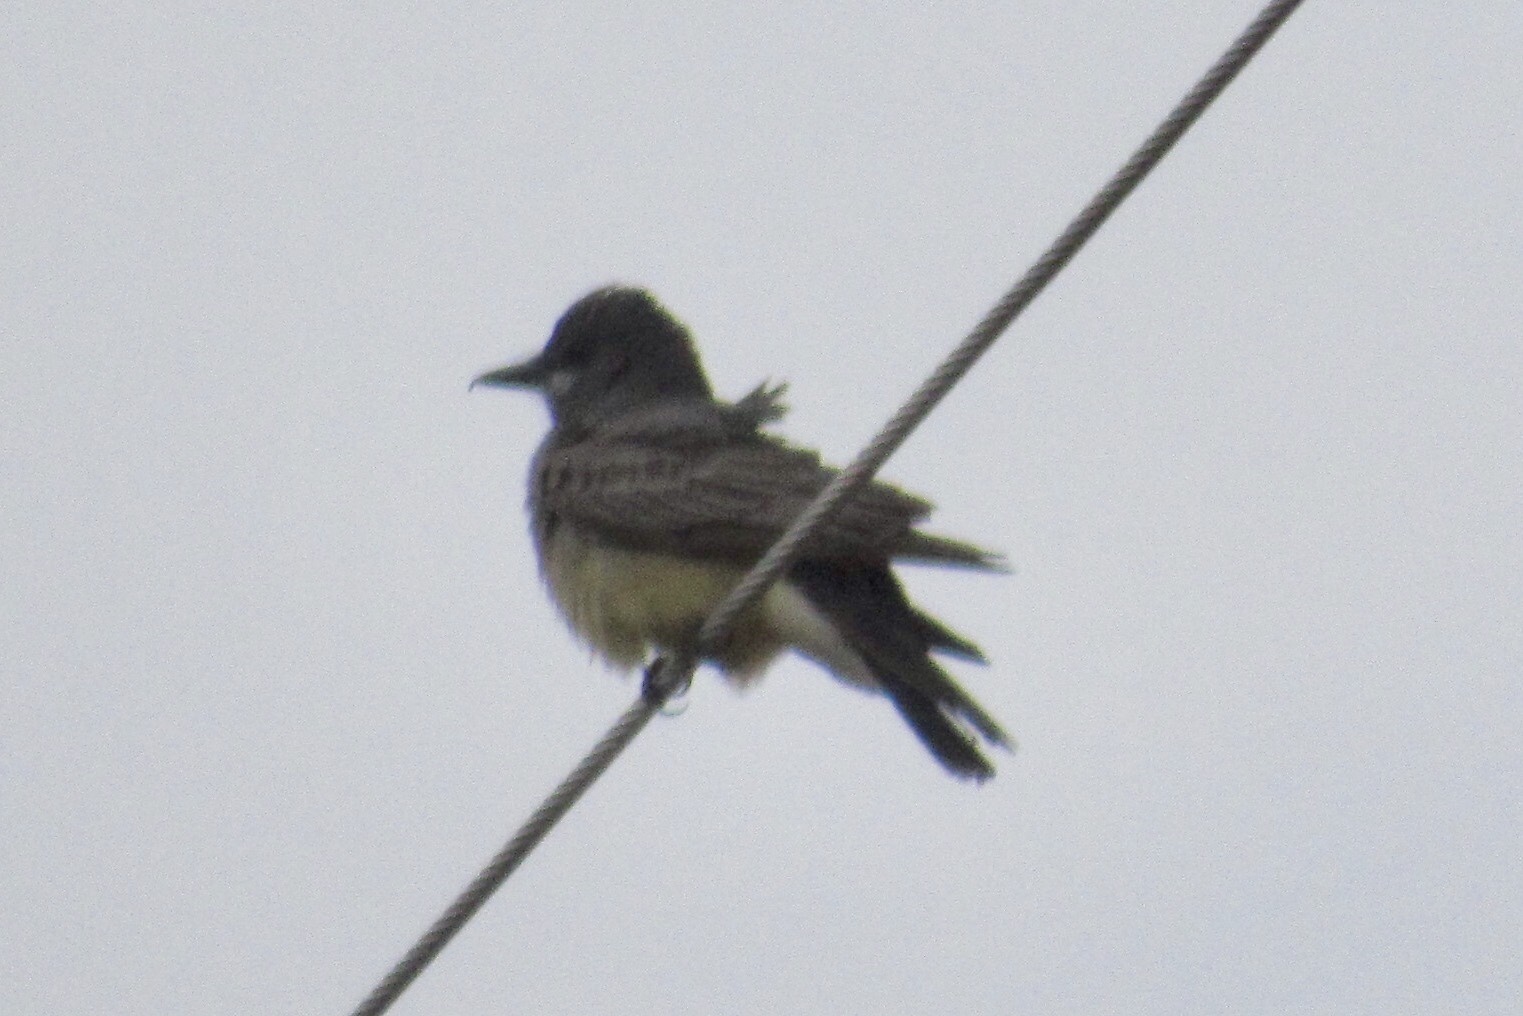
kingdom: Animalia
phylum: Chordata
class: Aves
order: Passeriformes
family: Tyrannidae
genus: Tyrannus
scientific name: Tyrannus vociferans
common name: Cassin's kingbird
